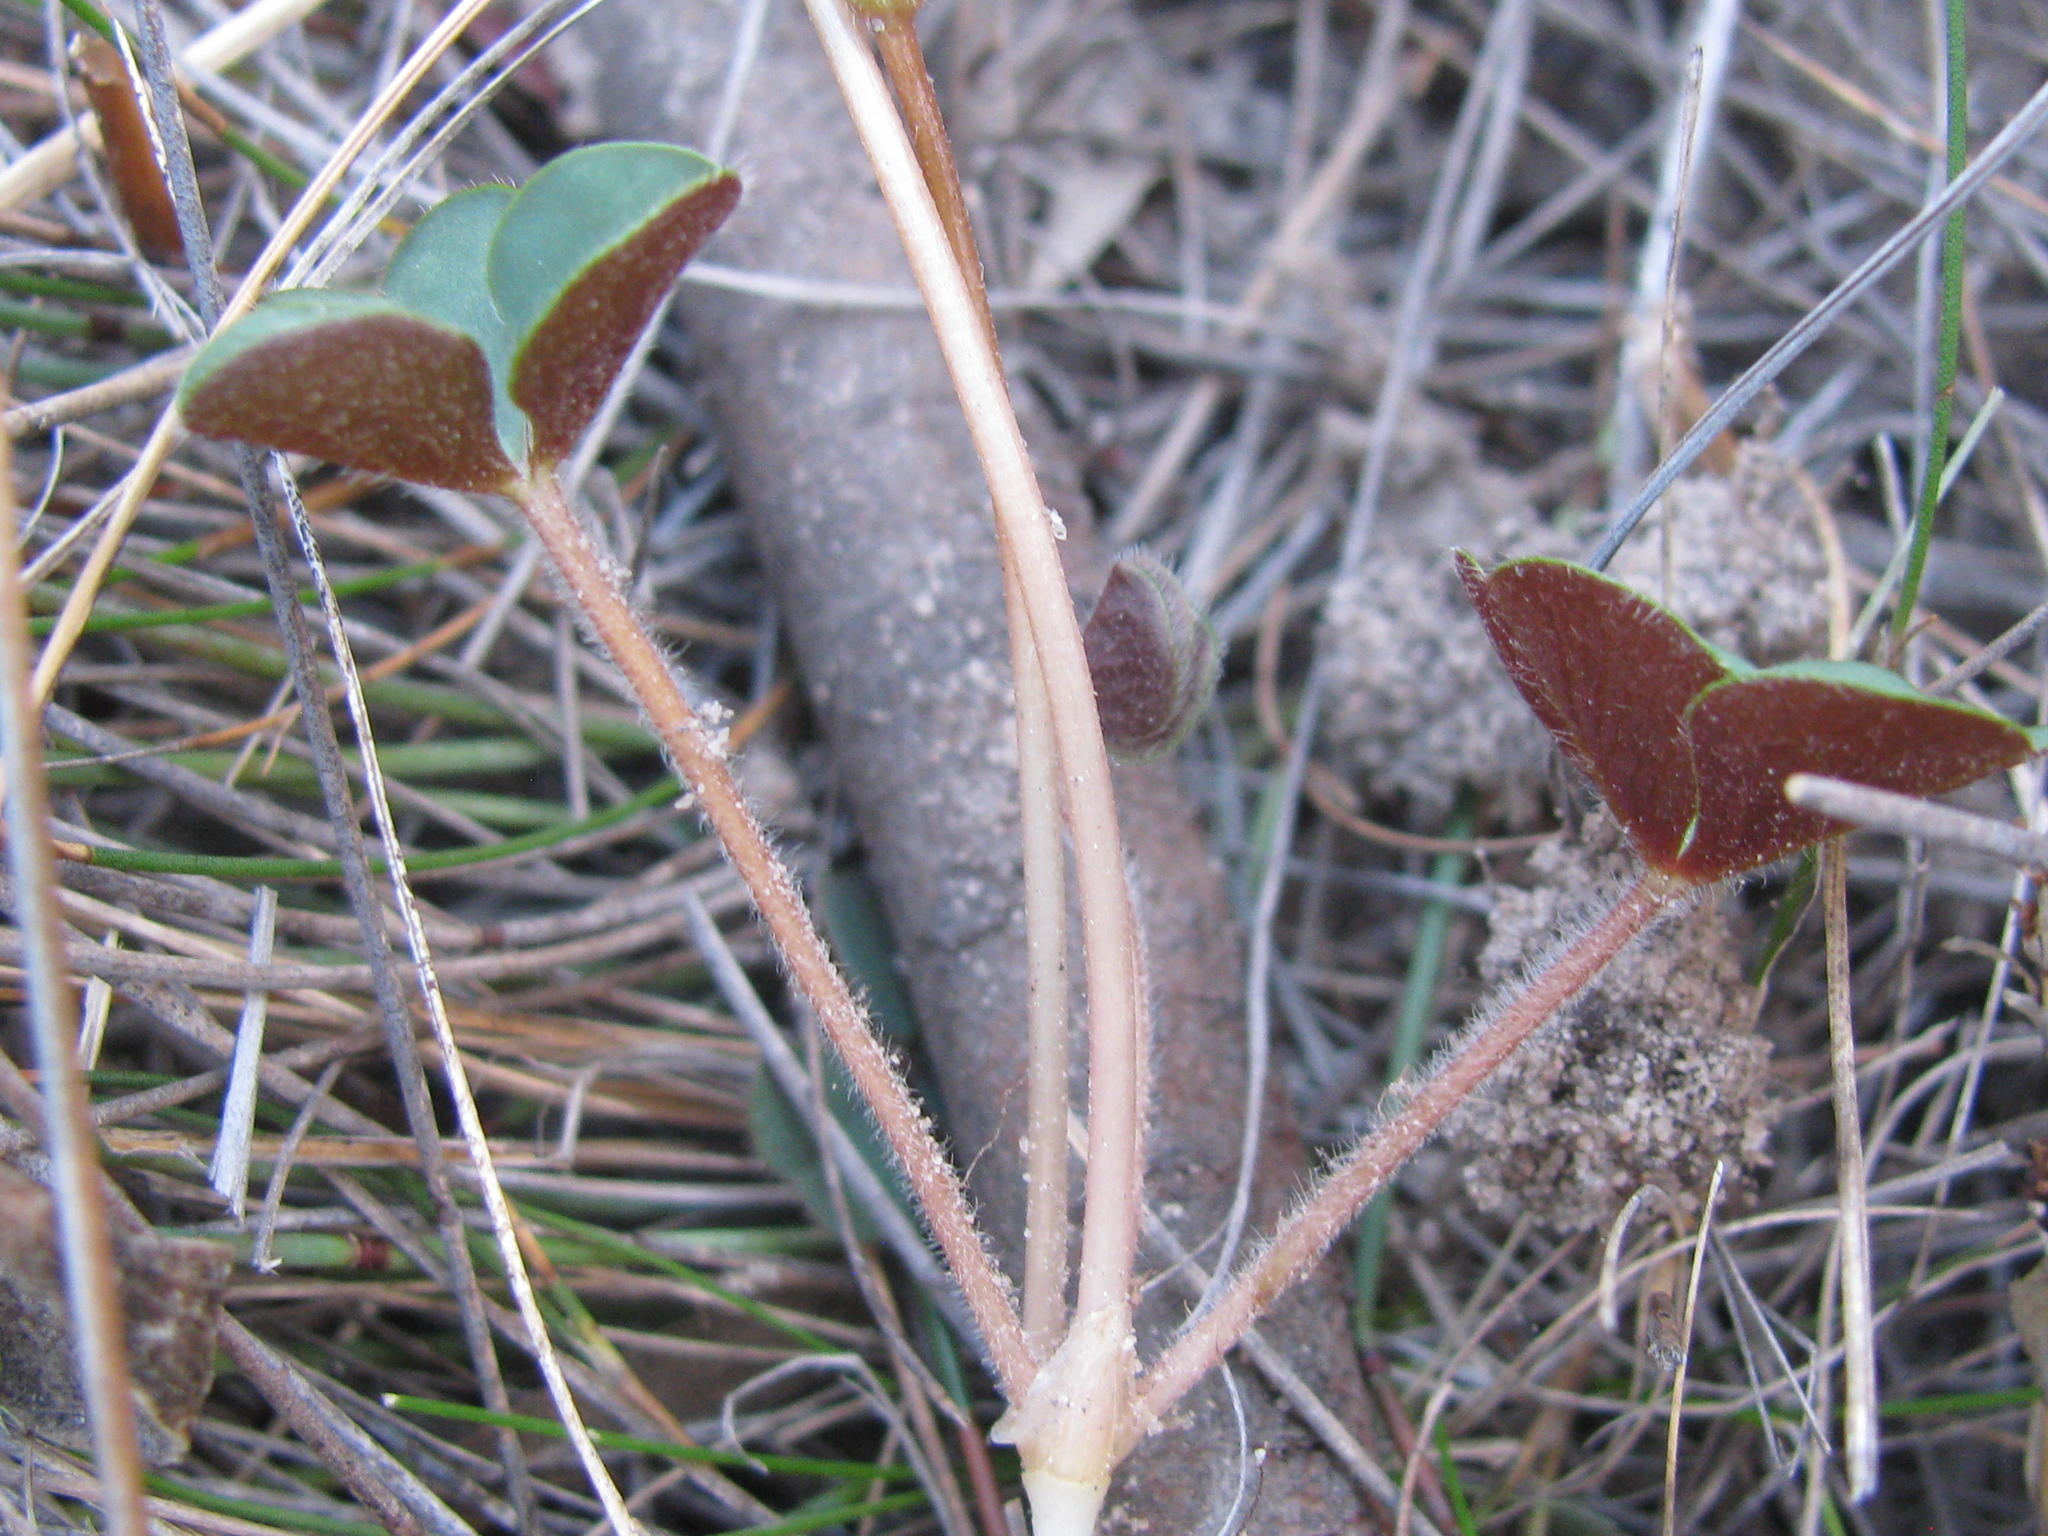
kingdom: Plantae
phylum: Tracheophyta
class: Magnoliopsida
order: Oxalidales
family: Oxalidaceae
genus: Oxalis
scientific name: Oxalis eckloniana
